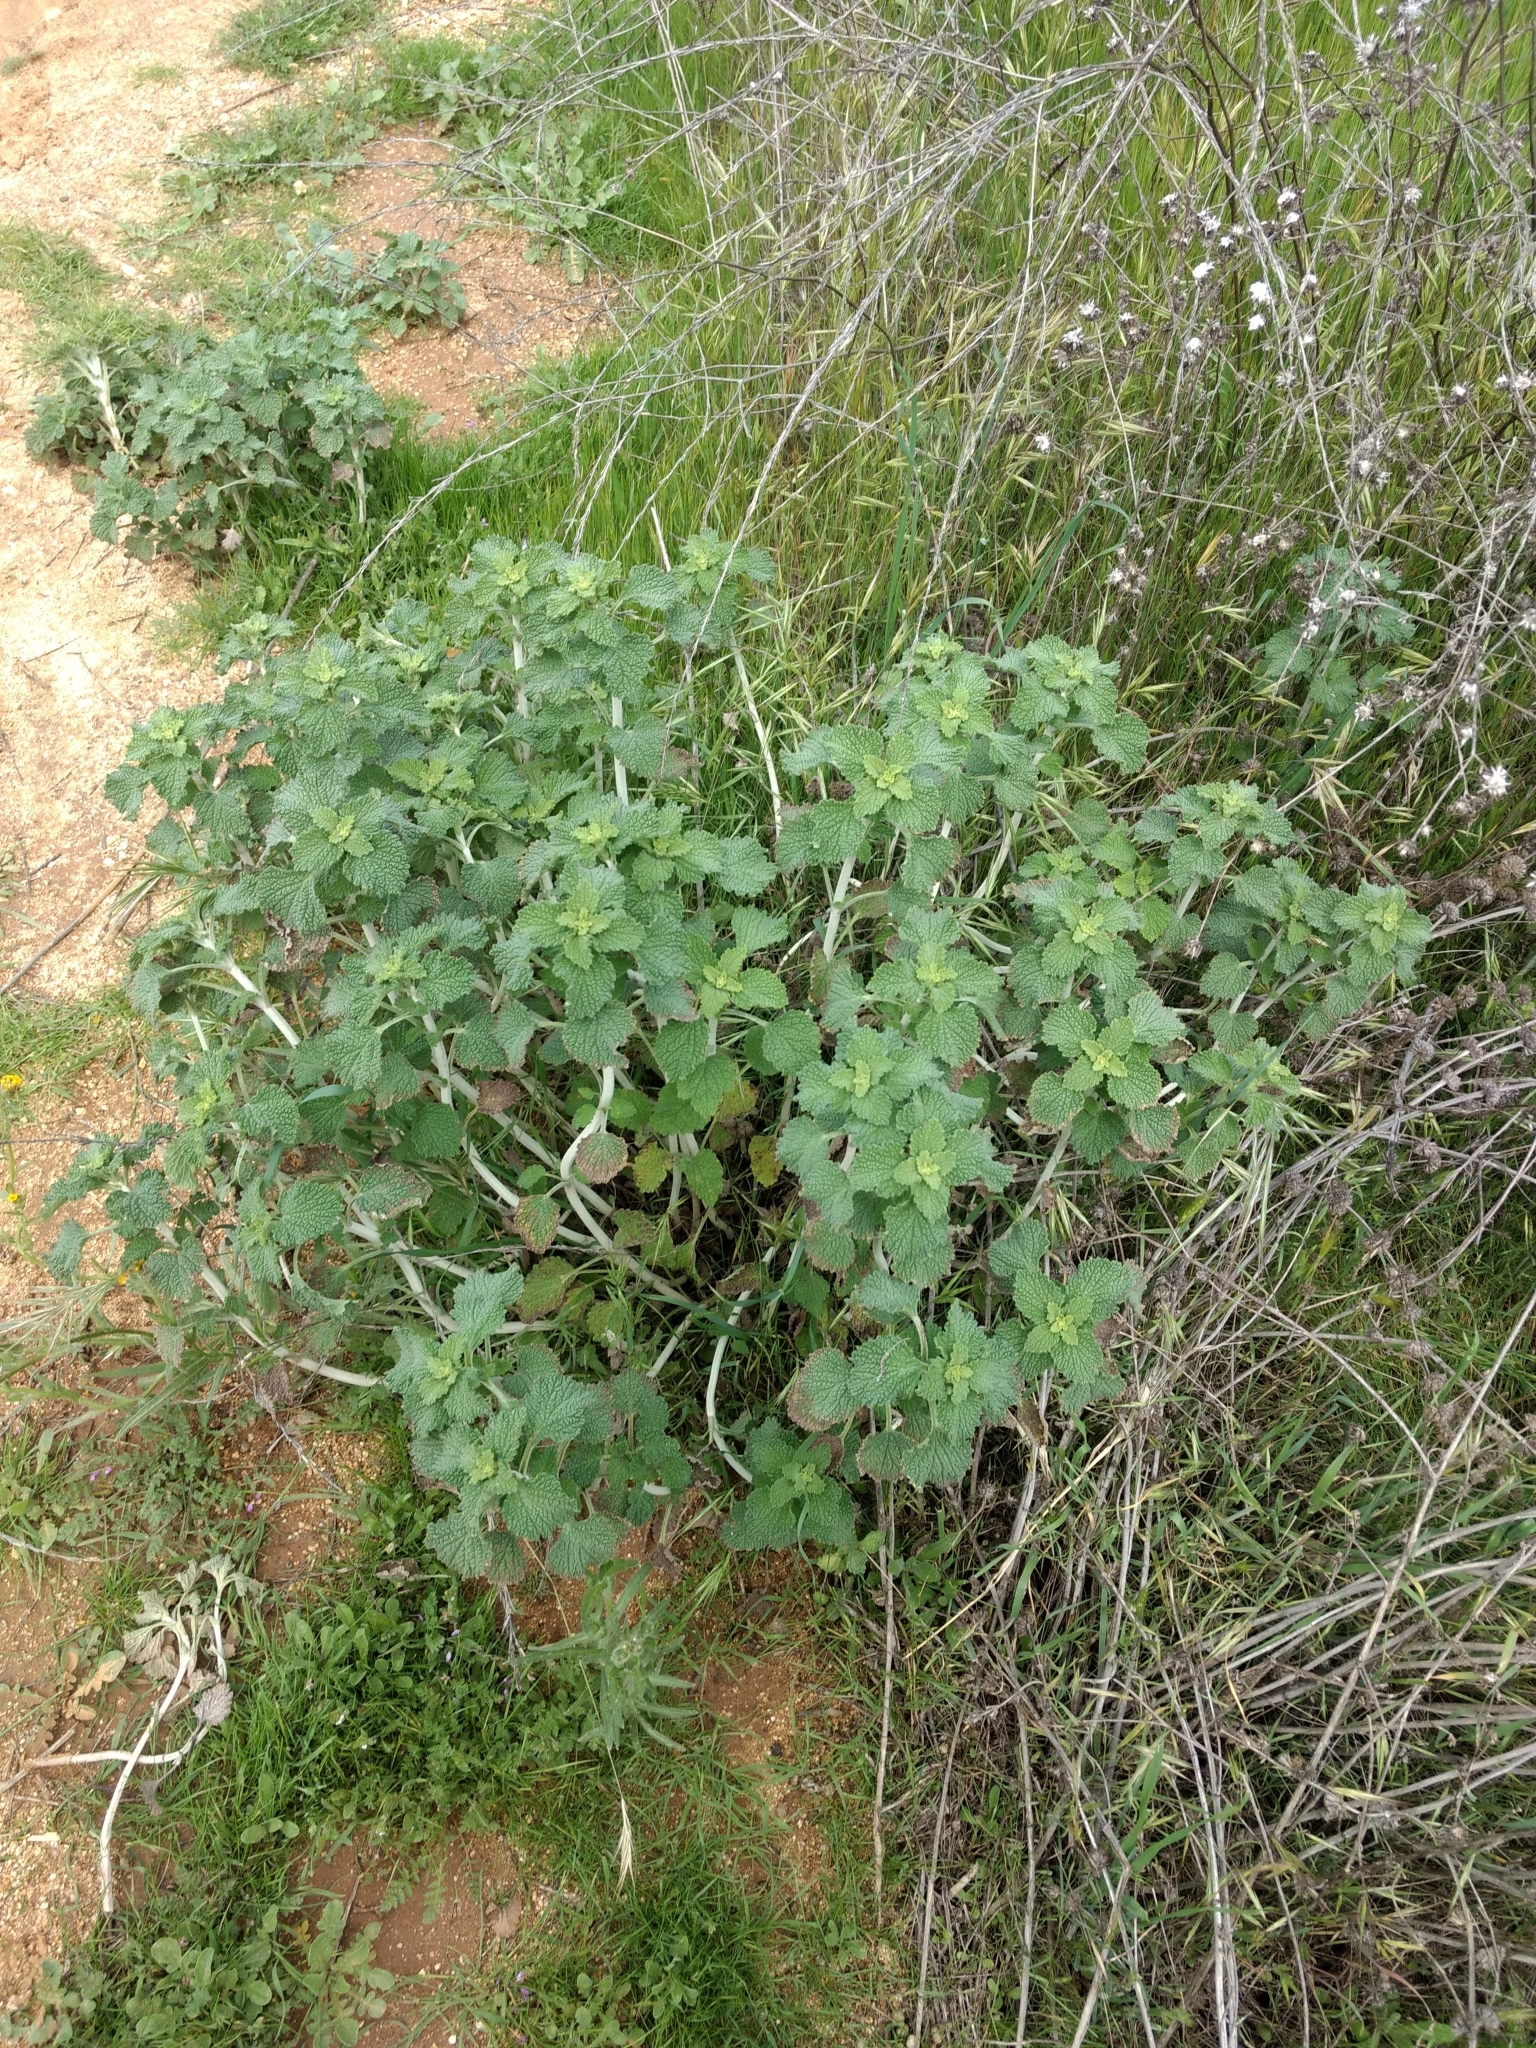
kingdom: Plantae
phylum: Tracheophyta
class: Magnoliopsida
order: Lamiales
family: Lamiaceae
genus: Marrubium
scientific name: Marrubium vulgare
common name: Horehound
